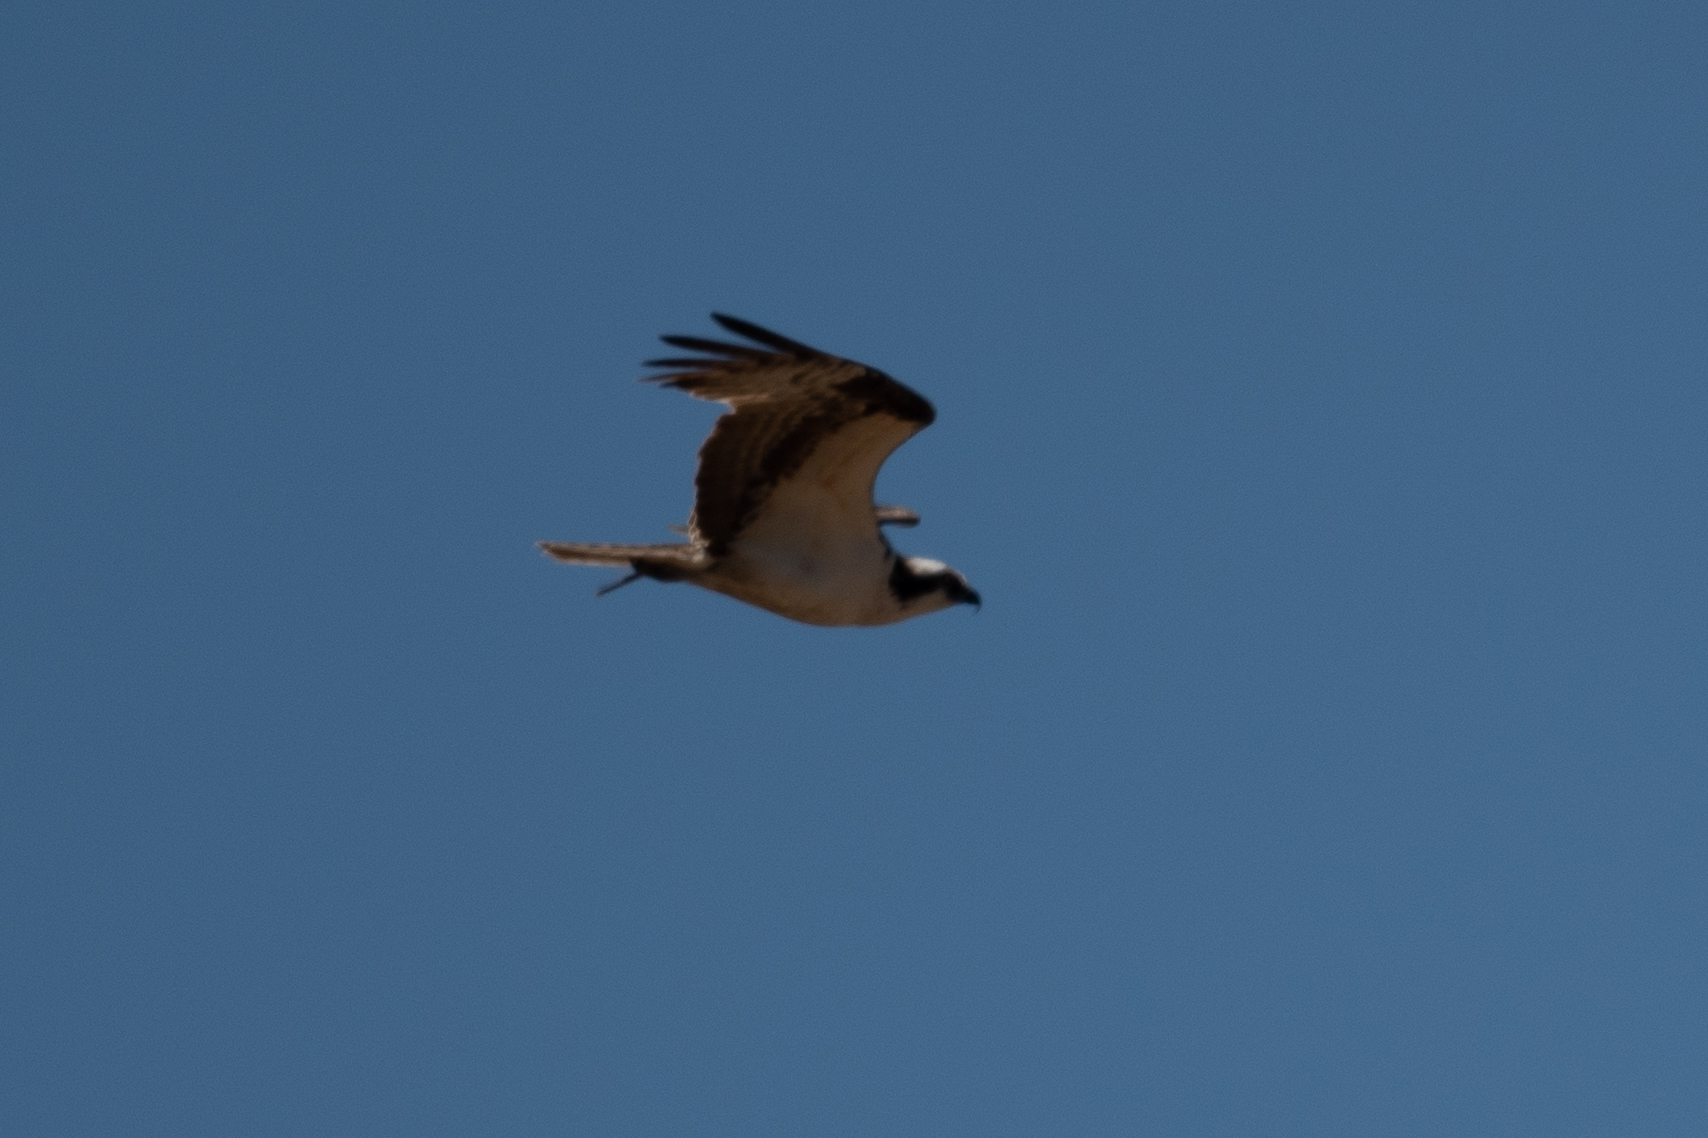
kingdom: Animalia
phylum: Chordata
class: Aves
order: Accipitriformes
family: Pandionidae
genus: Pandion
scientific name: Pandion haliaetus
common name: Osprey
